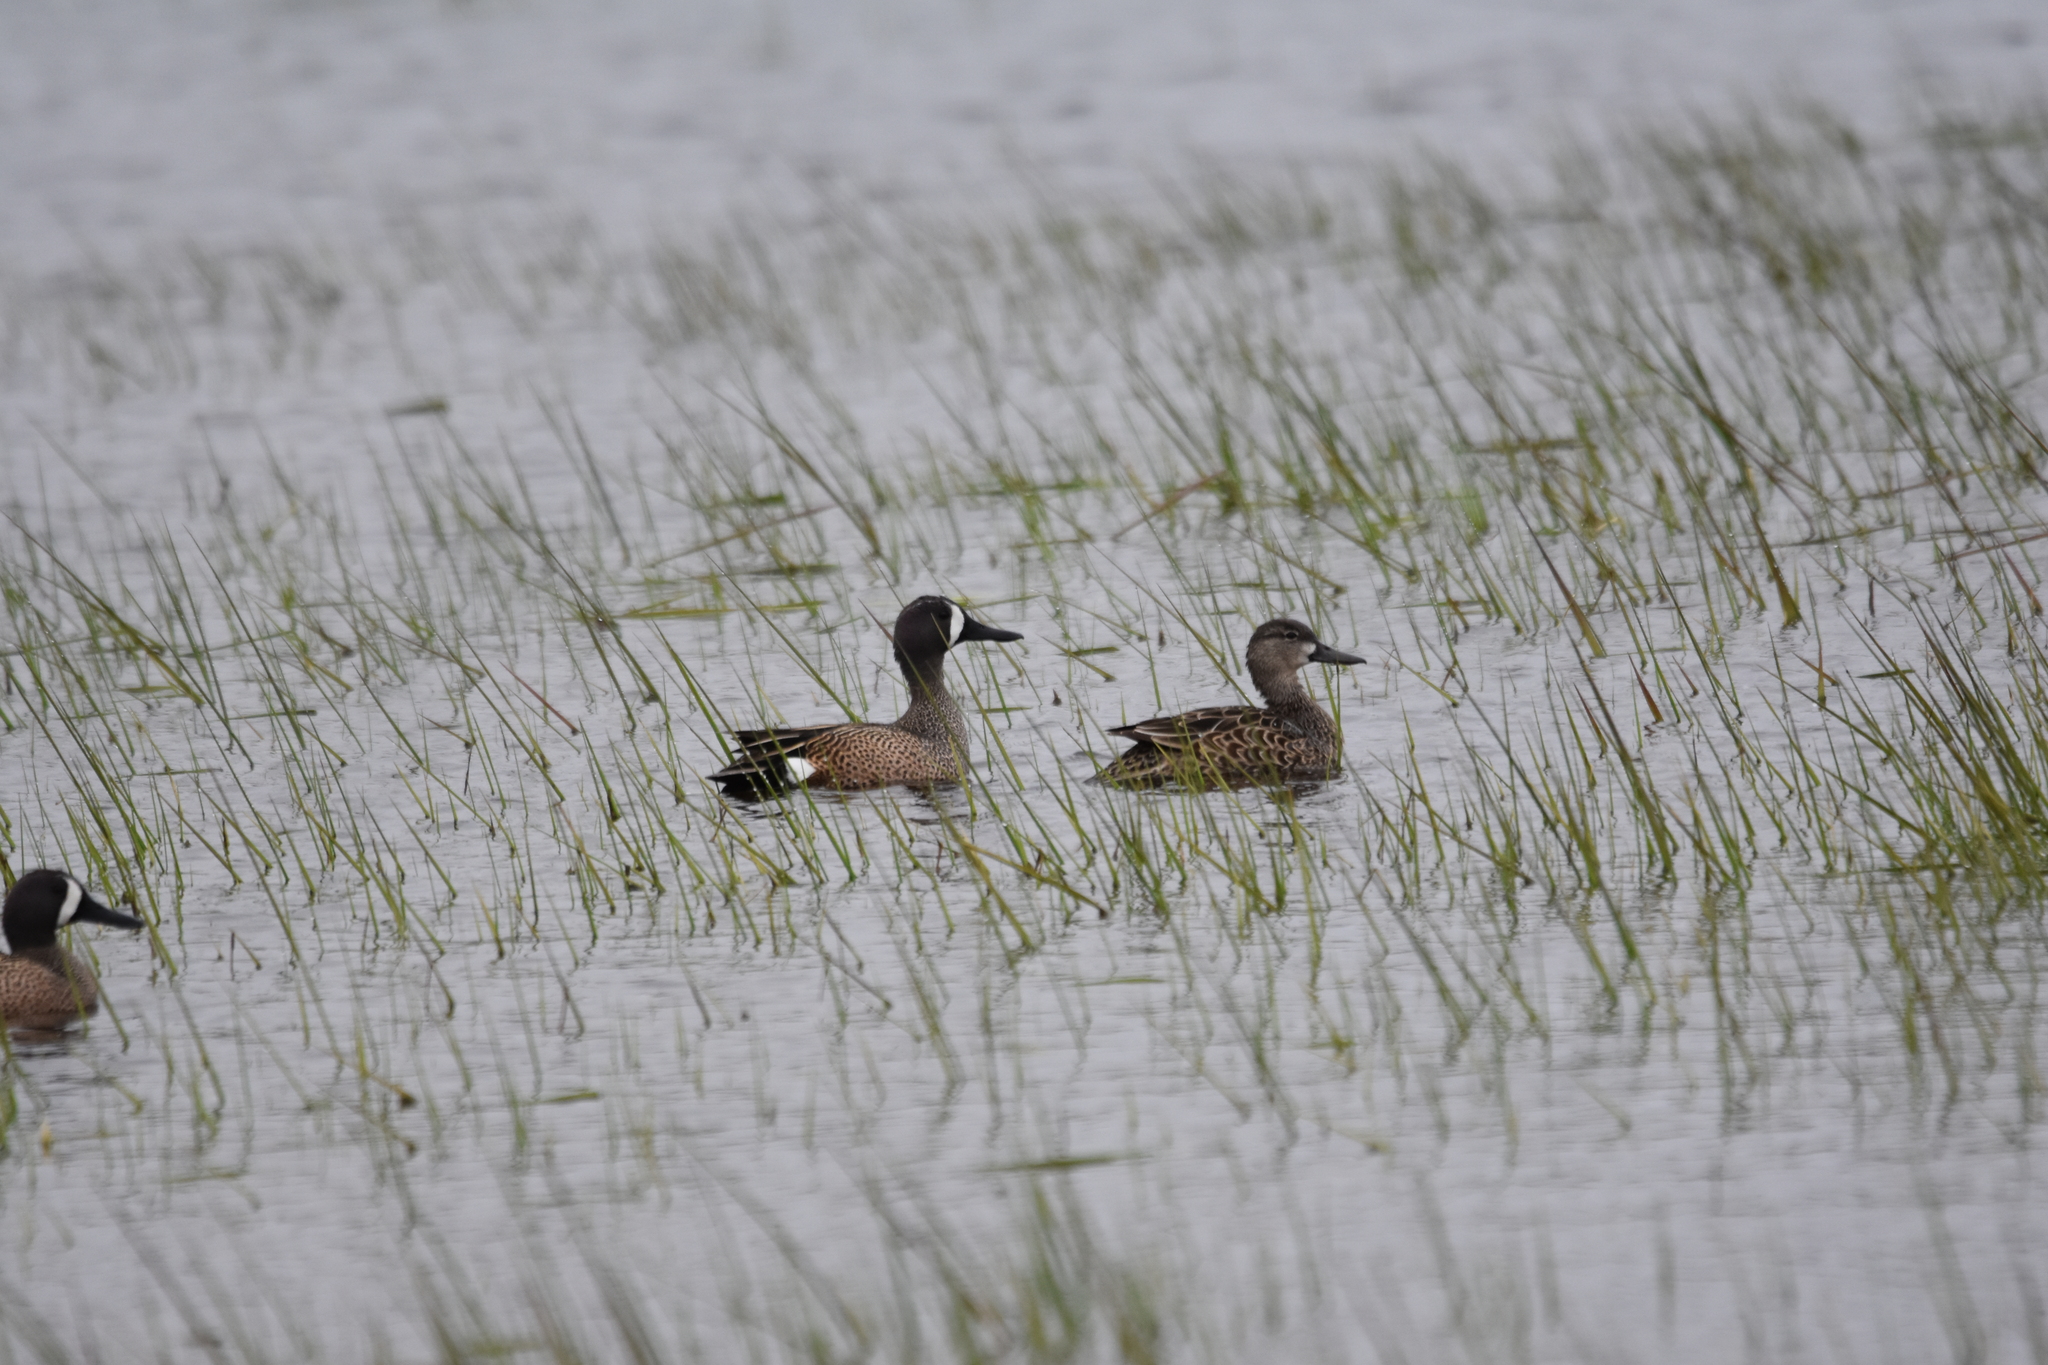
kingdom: Animalia
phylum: Chordata
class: Aves
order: Anseriformes
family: Anatidae
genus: Spatula
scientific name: Spatula discors
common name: Blue-winged teal
